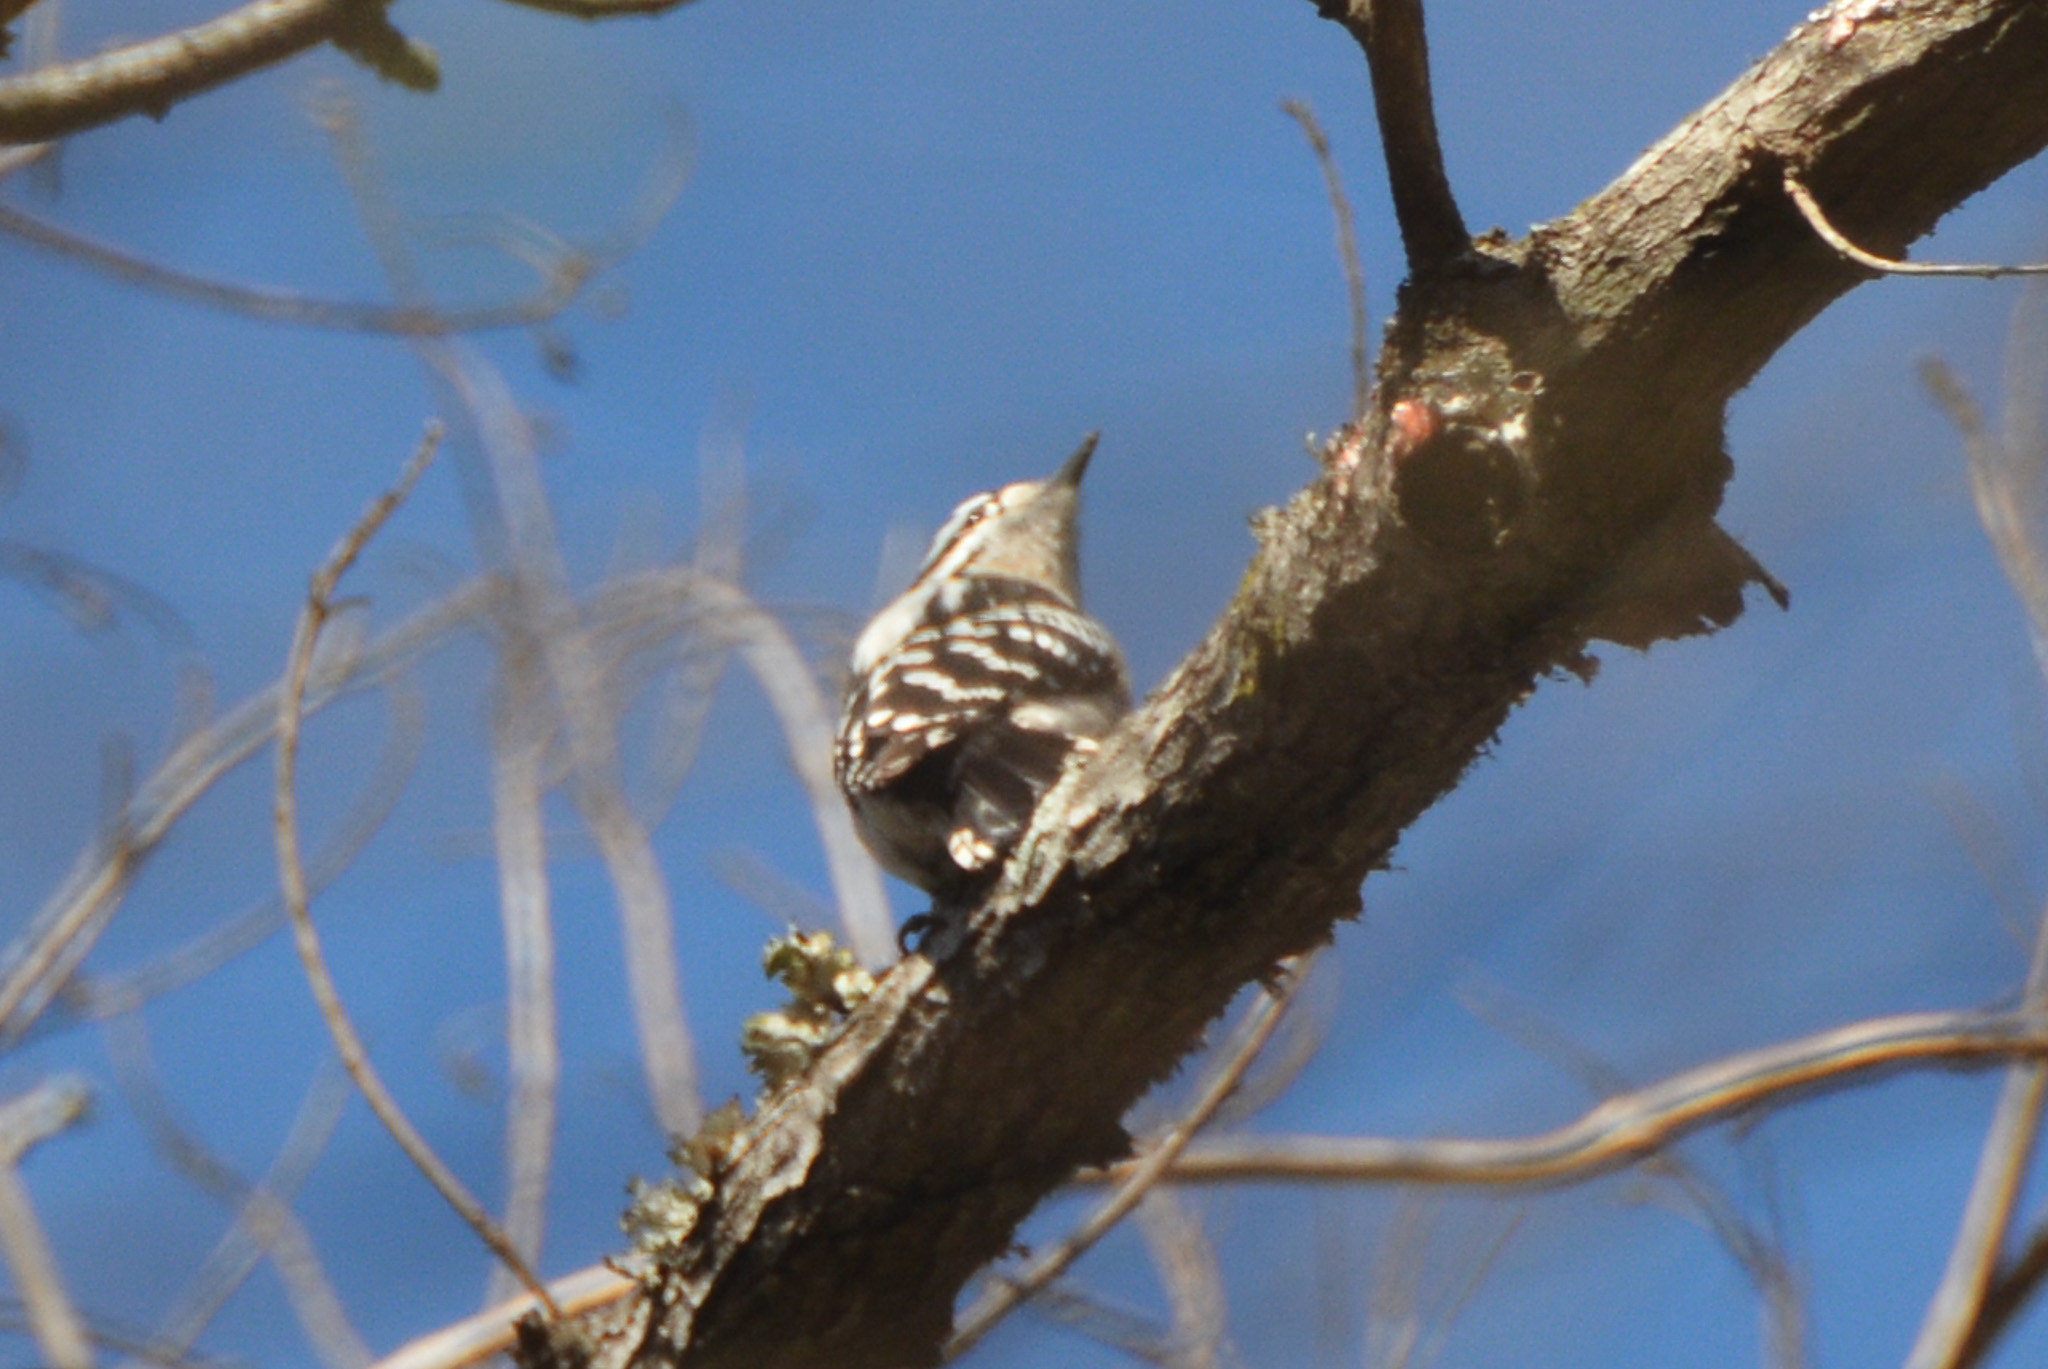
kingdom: Animalia
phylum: Chordata
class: Aves
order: Piciformes
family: Picidae
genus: Dryobates
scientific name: Dryobates pubescens
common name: Downy woodpecker
